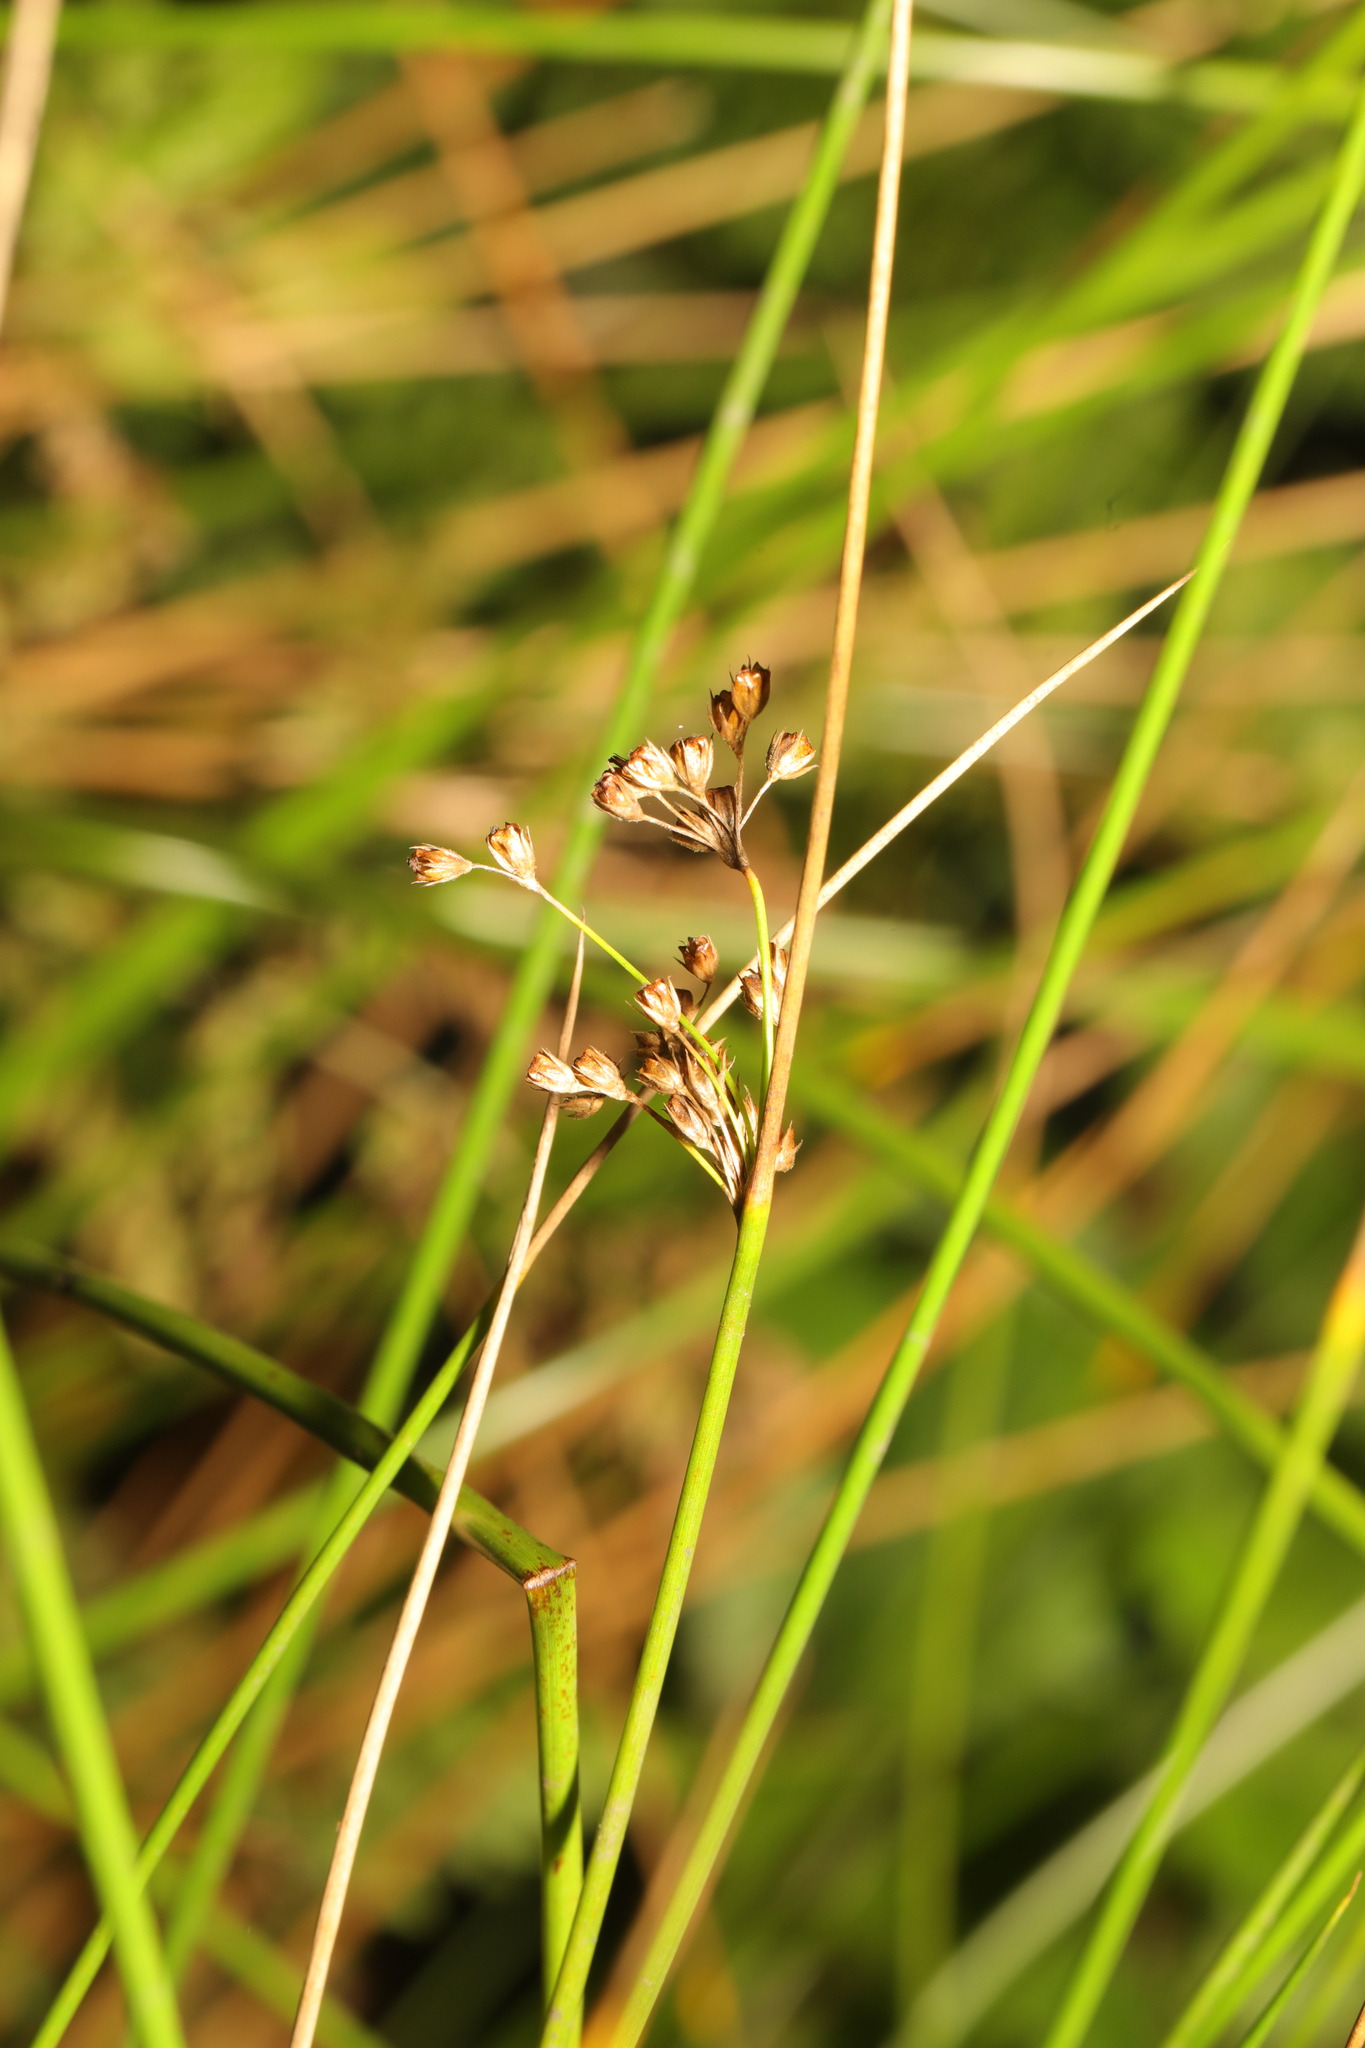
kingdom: Plantae
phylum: Tracheophyta
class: Liliopsida
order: Poales
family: Juncaceae
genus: Juncus
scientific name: Juncus effusus
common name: Soft rush
